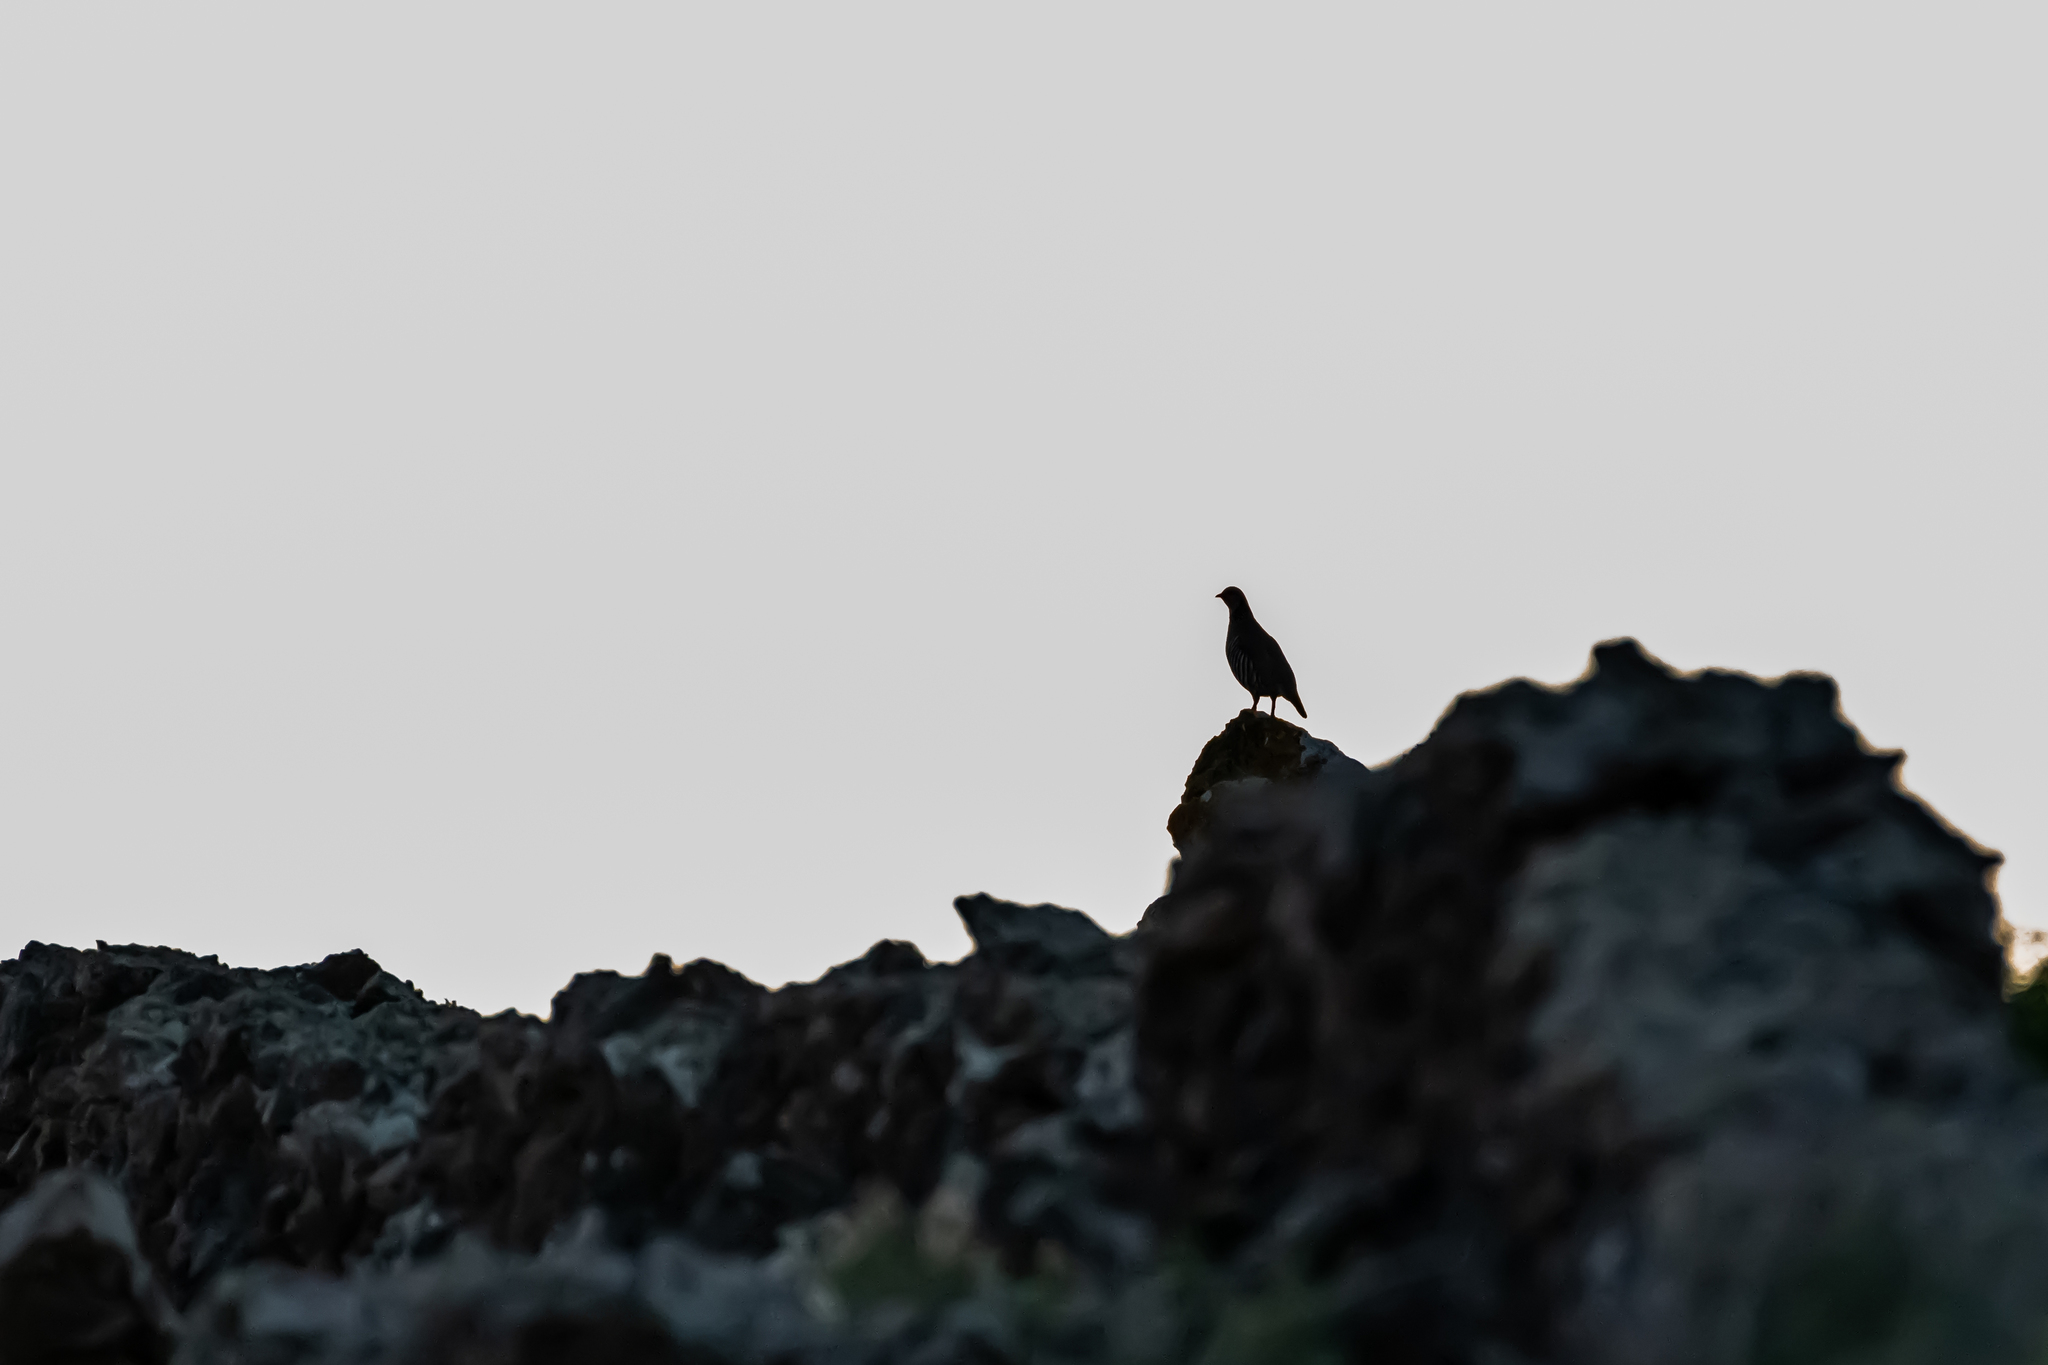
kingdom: Animalia
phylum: Chordata
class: Aves
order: Galliformes
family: Phasianidae
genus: Alectoris
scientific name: Alectoris barbara
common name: Barbary partridge
